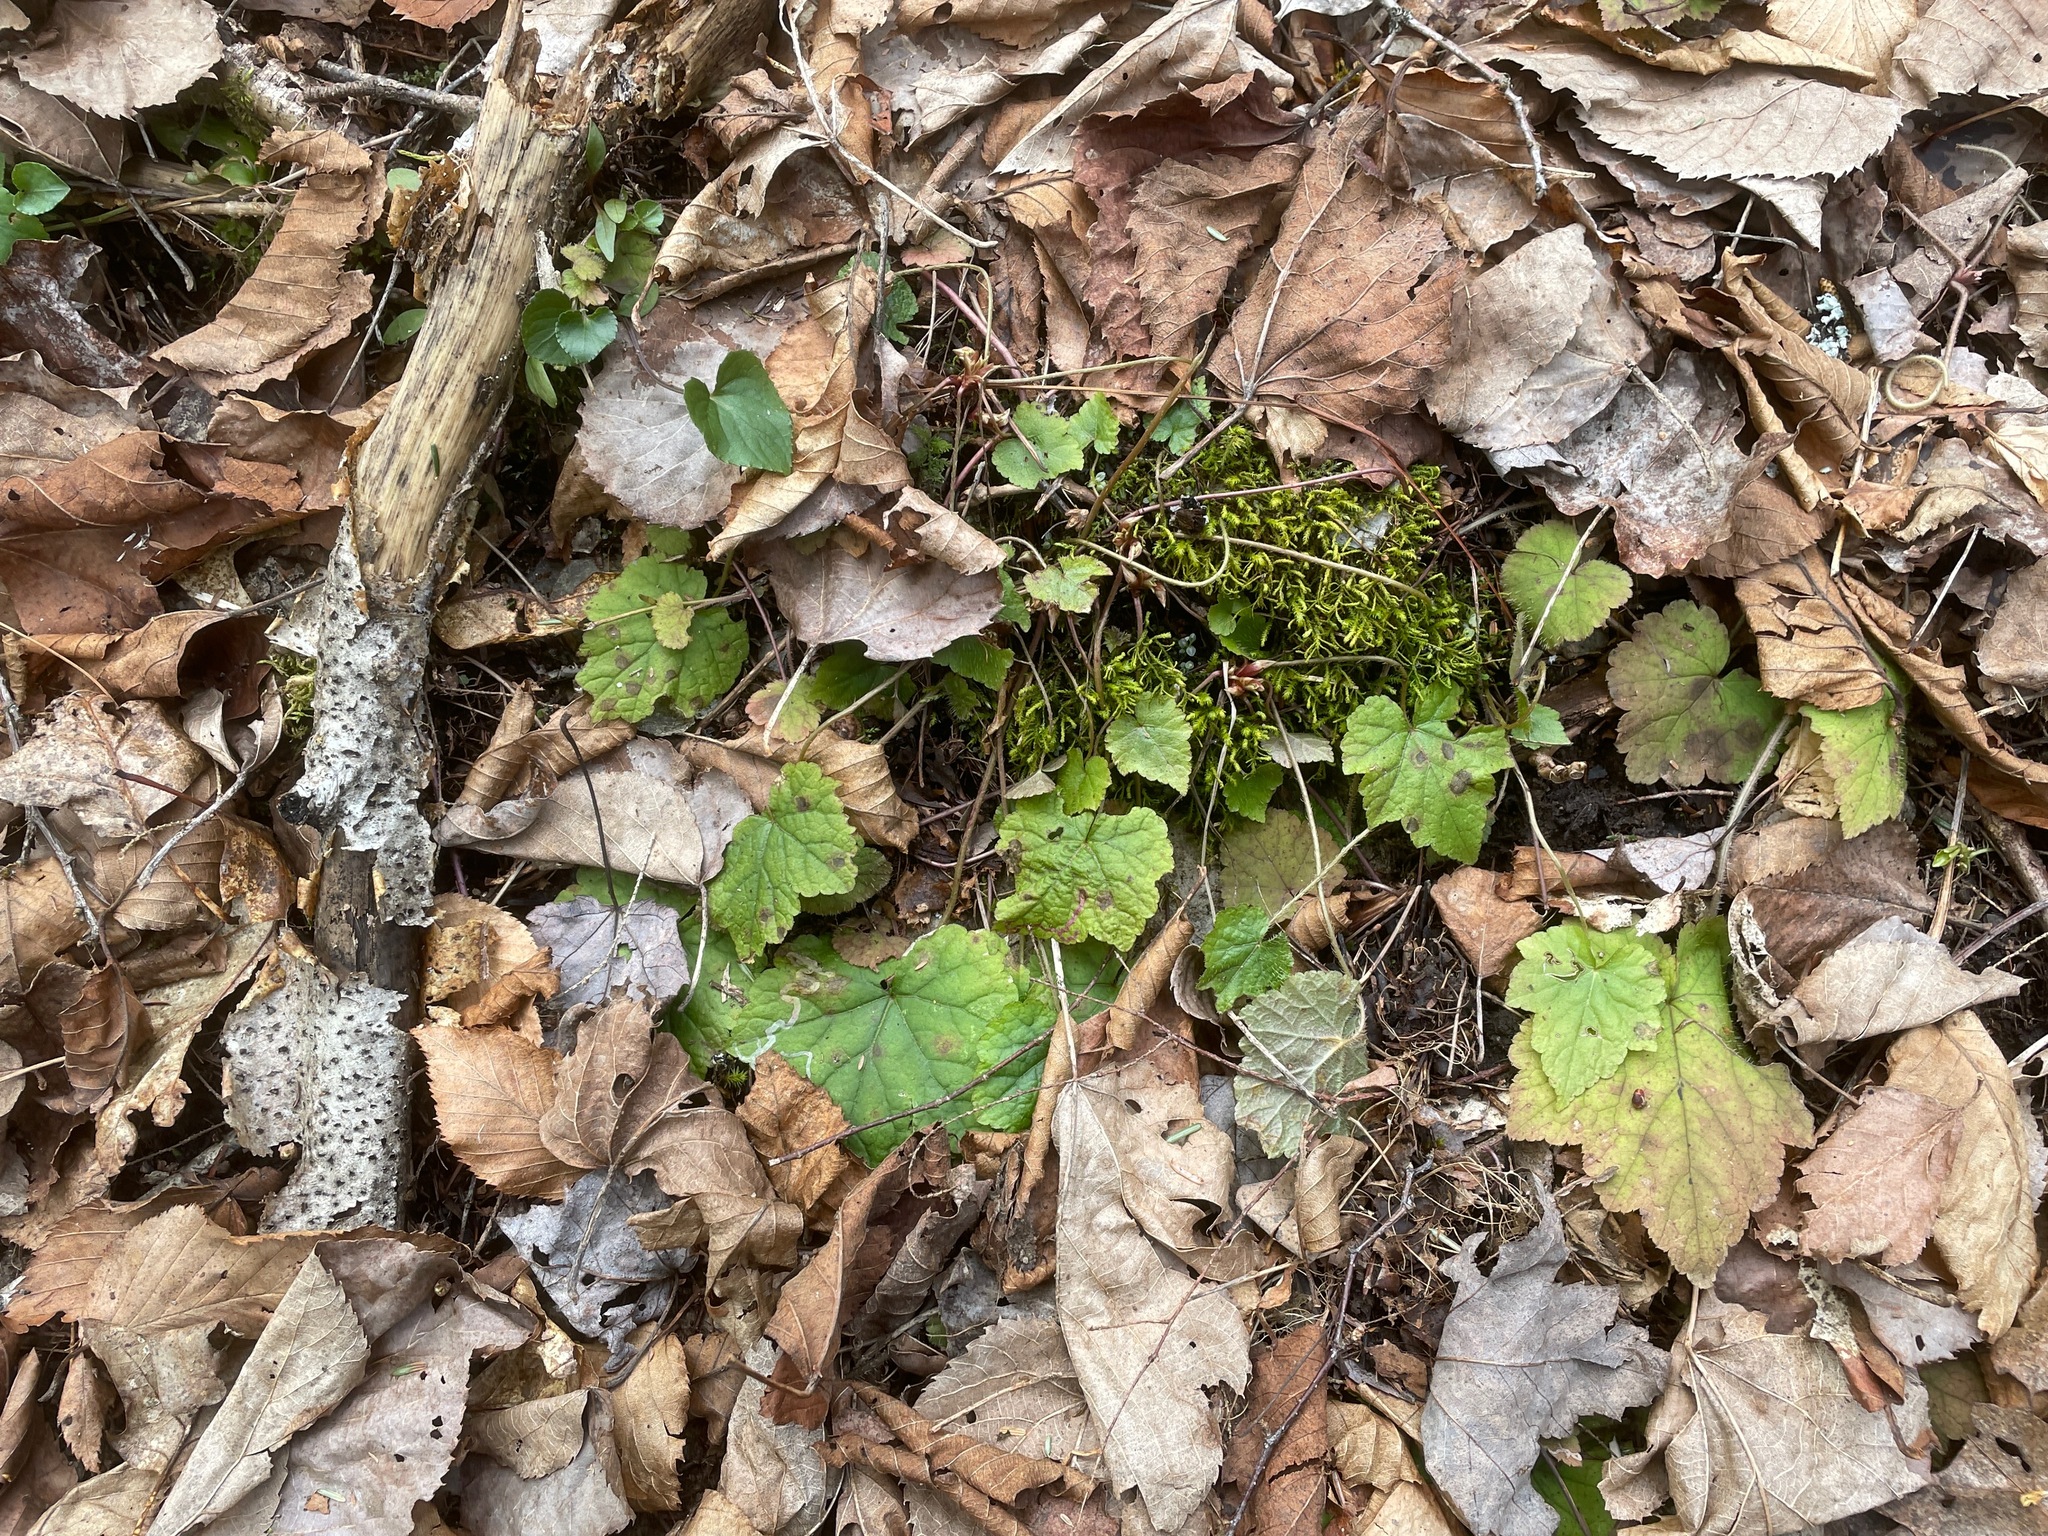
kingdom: Plantae
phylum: Tracheophyta
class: Magnoliopsida
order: Saxifragales
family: Saxifragaceae
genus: Tiarella
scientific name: Tiarella stolonifera
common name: Stoloniferous foamflower
